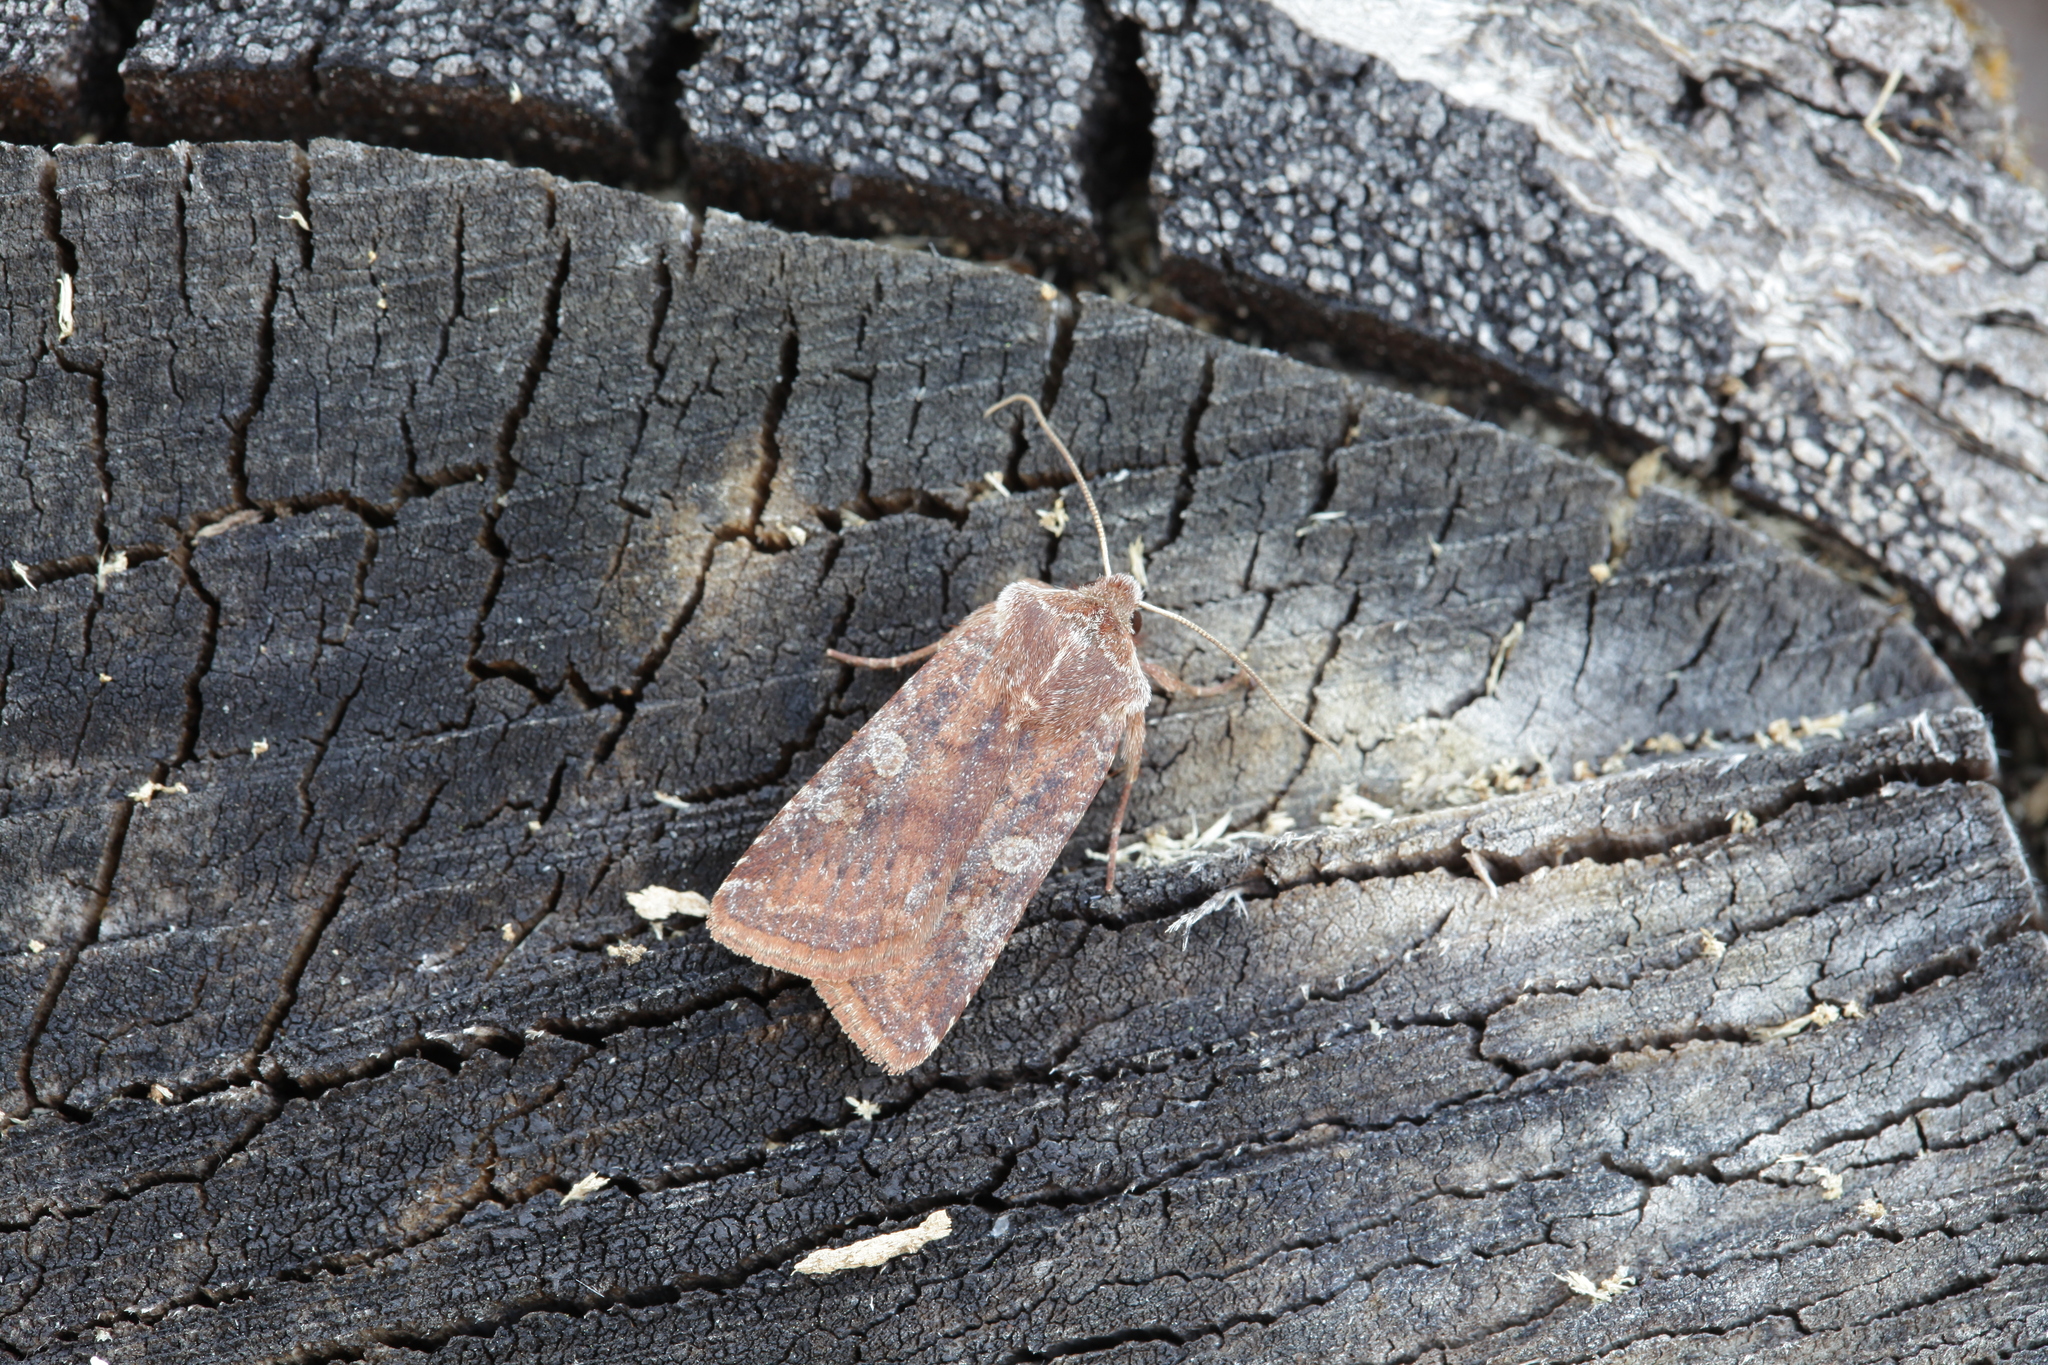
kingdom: Animalia
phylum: Arthropoda
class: Insecta
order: Lepidoptera
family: Noctuidae
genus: Cerastis
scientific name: Cerastis leucographa
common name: White-marked
